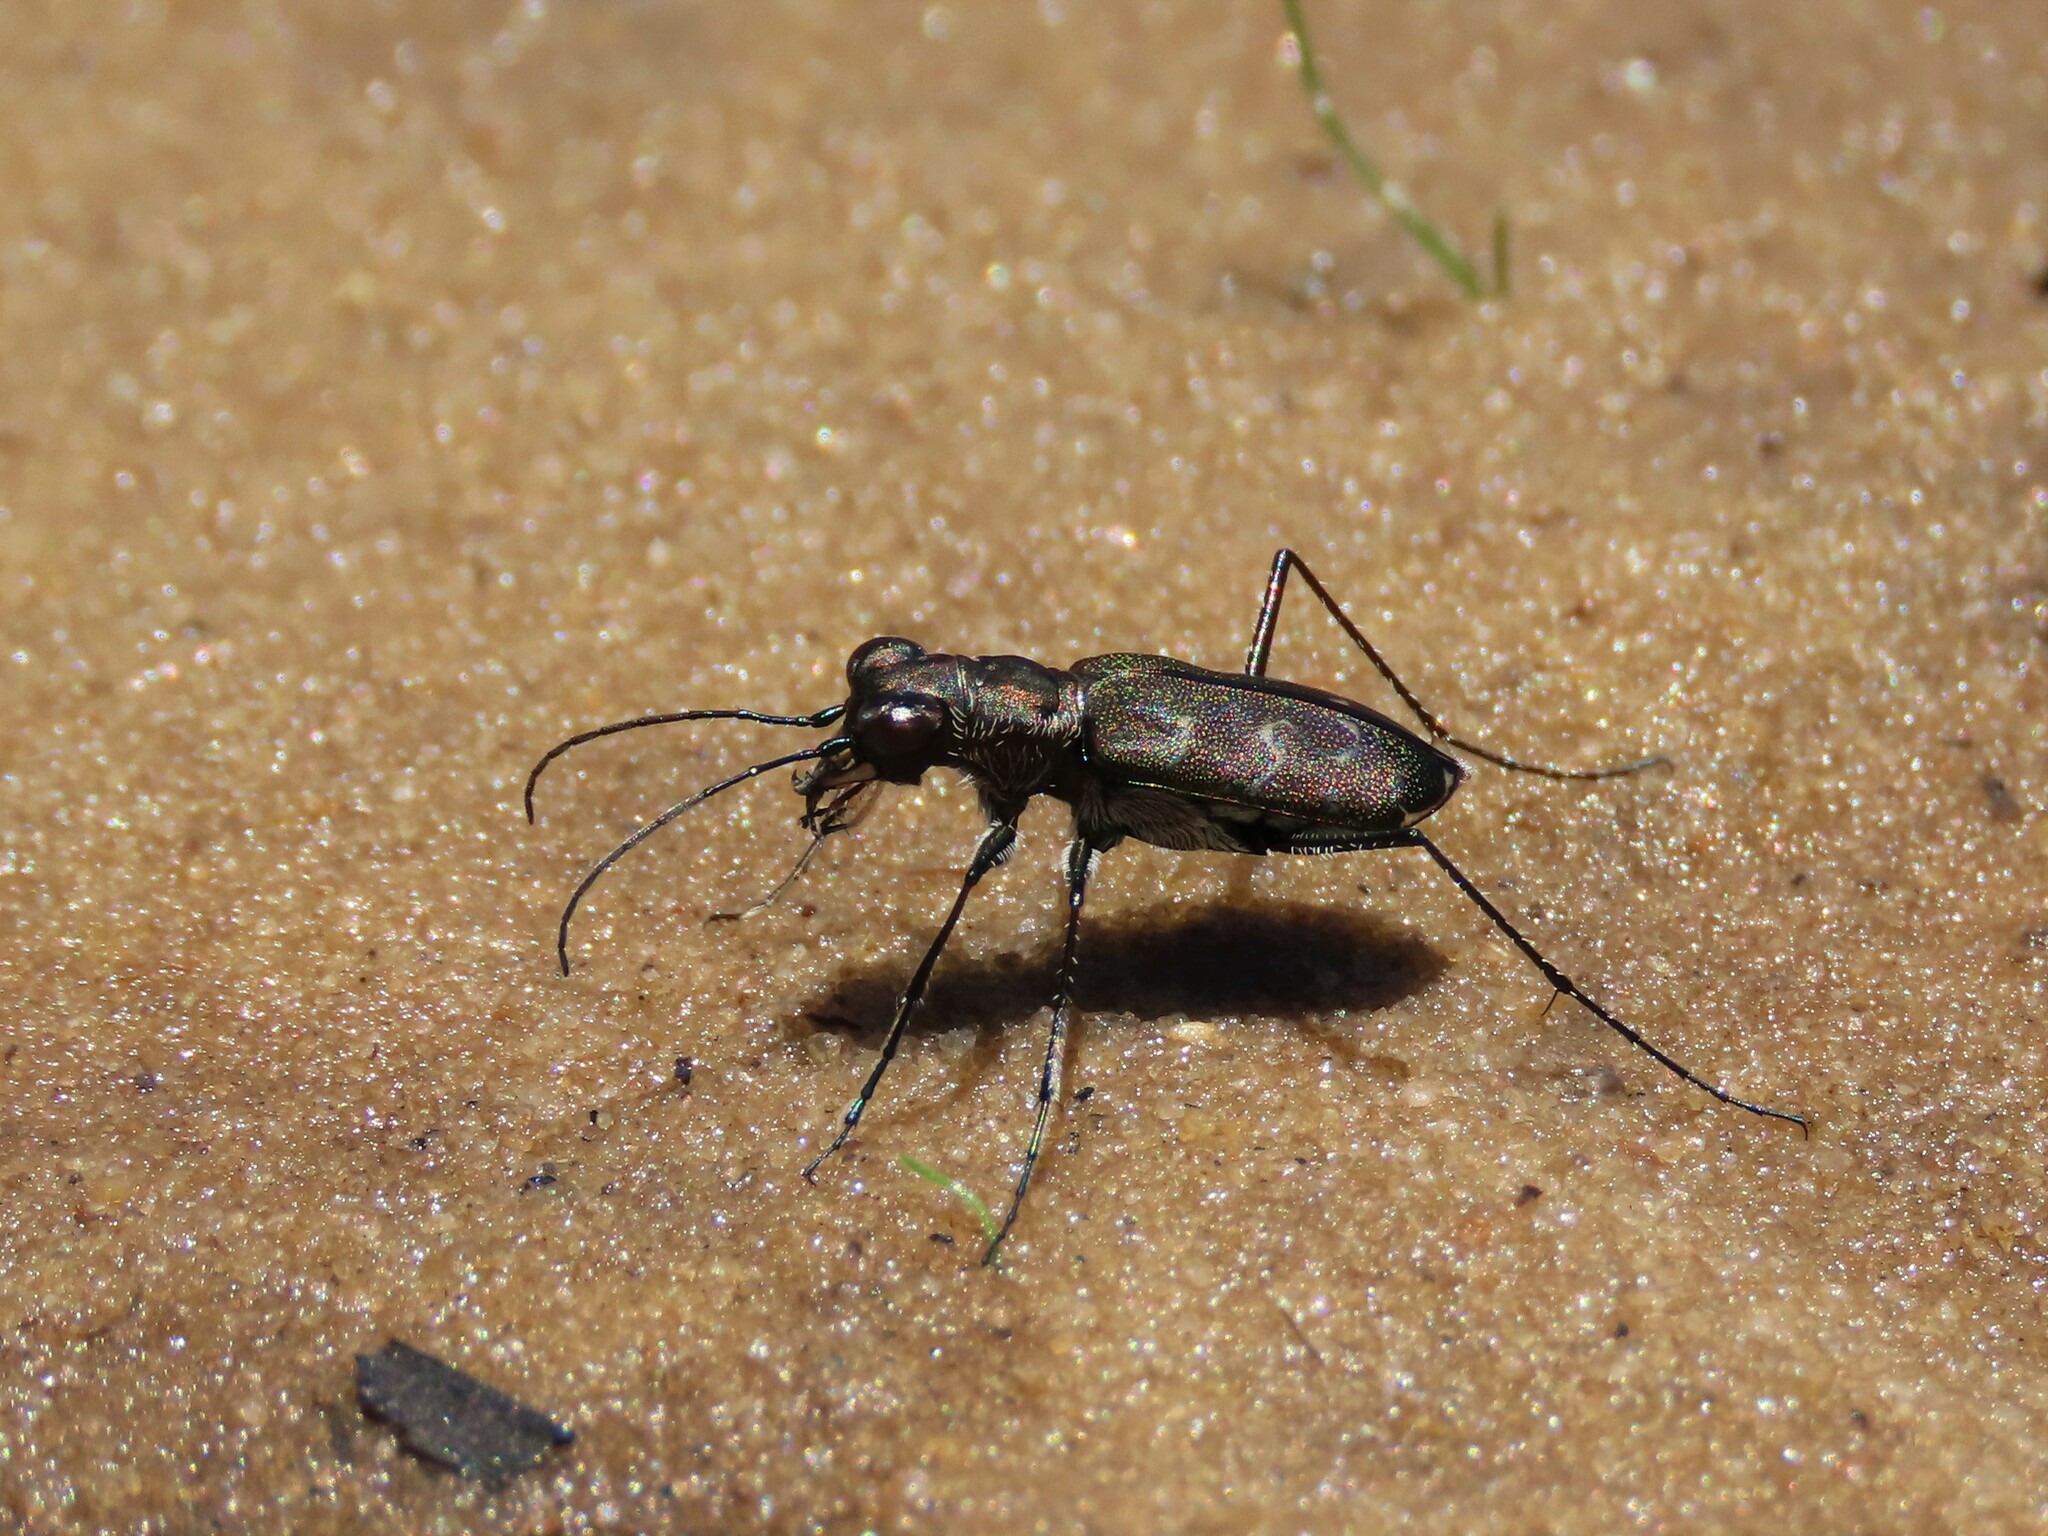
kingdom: Animalia
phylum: Arthropoda
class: Insecta
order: Coleoptera
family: Carabidae
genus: Cicindela
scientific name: Cicindela trifasciata
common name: Mudflat tiger beetle
